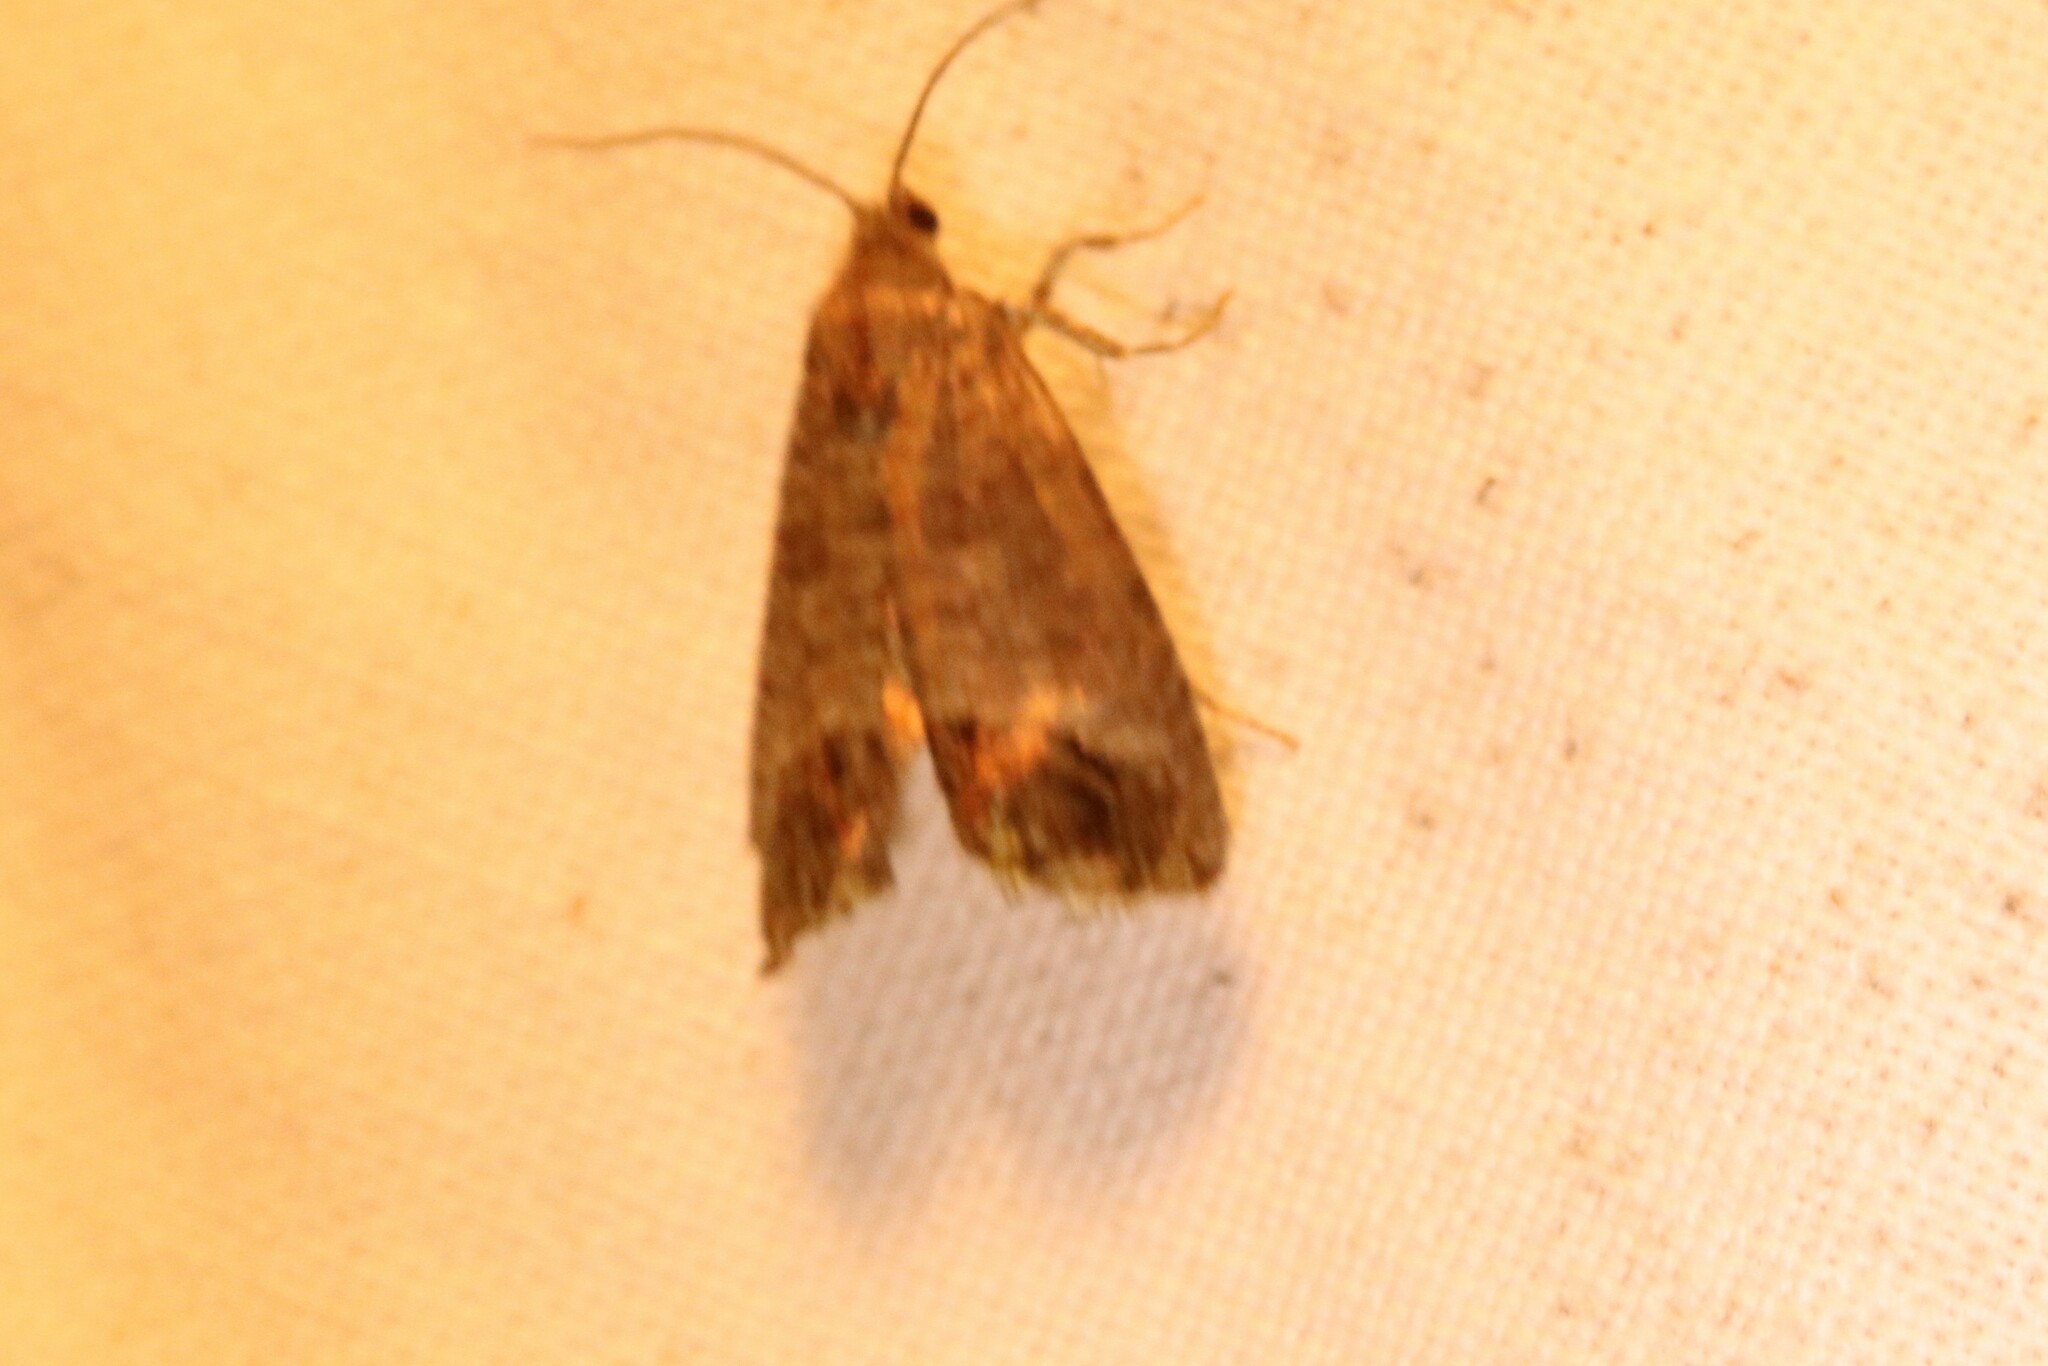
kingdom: Animalia
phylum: Arthropoda
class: Insecta
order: Lepidoptera
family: Tortricidae
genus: Cydia
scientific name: Cydia pomonella
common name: Codling moth
